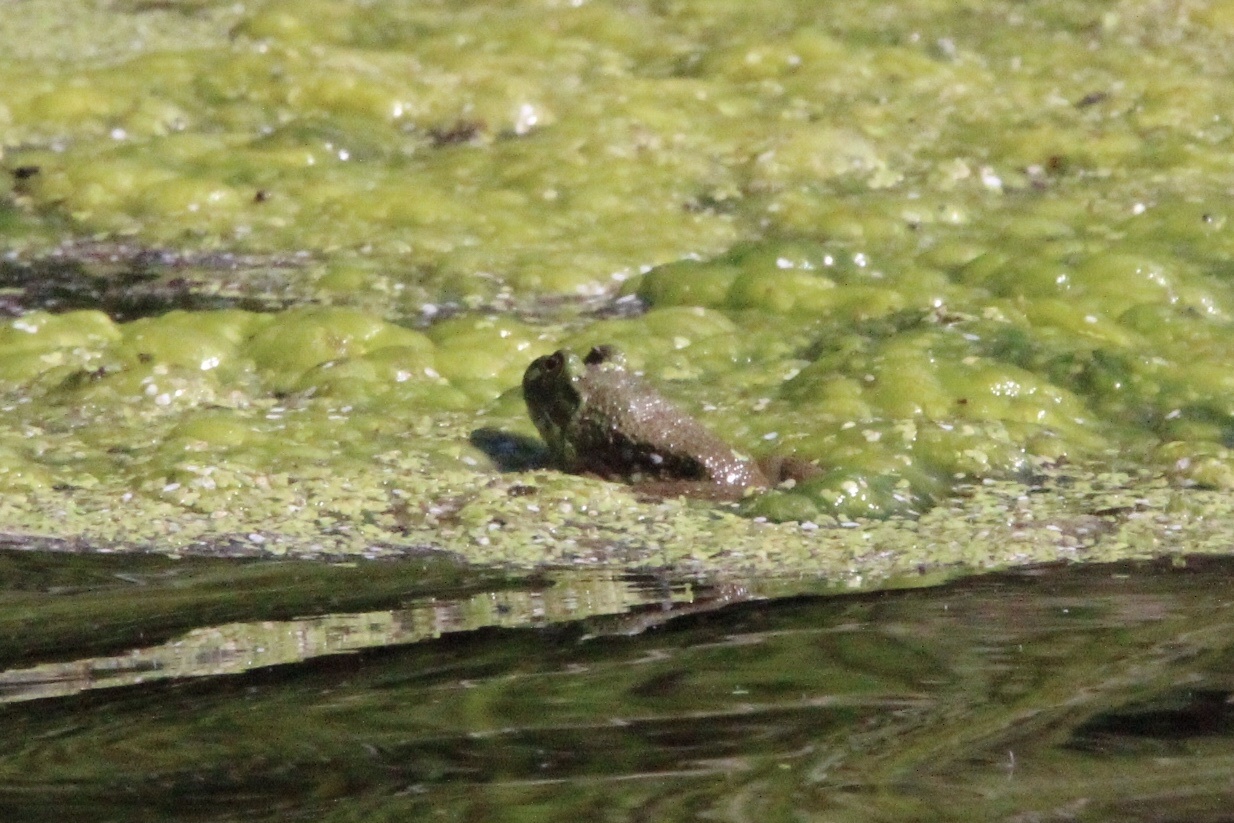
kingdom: Animalia
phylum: Chordata
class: Amphibia
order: Anura
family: Ranidae
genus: Lithobates
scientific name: Lithobates catesbeianus
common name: American bullfrog
